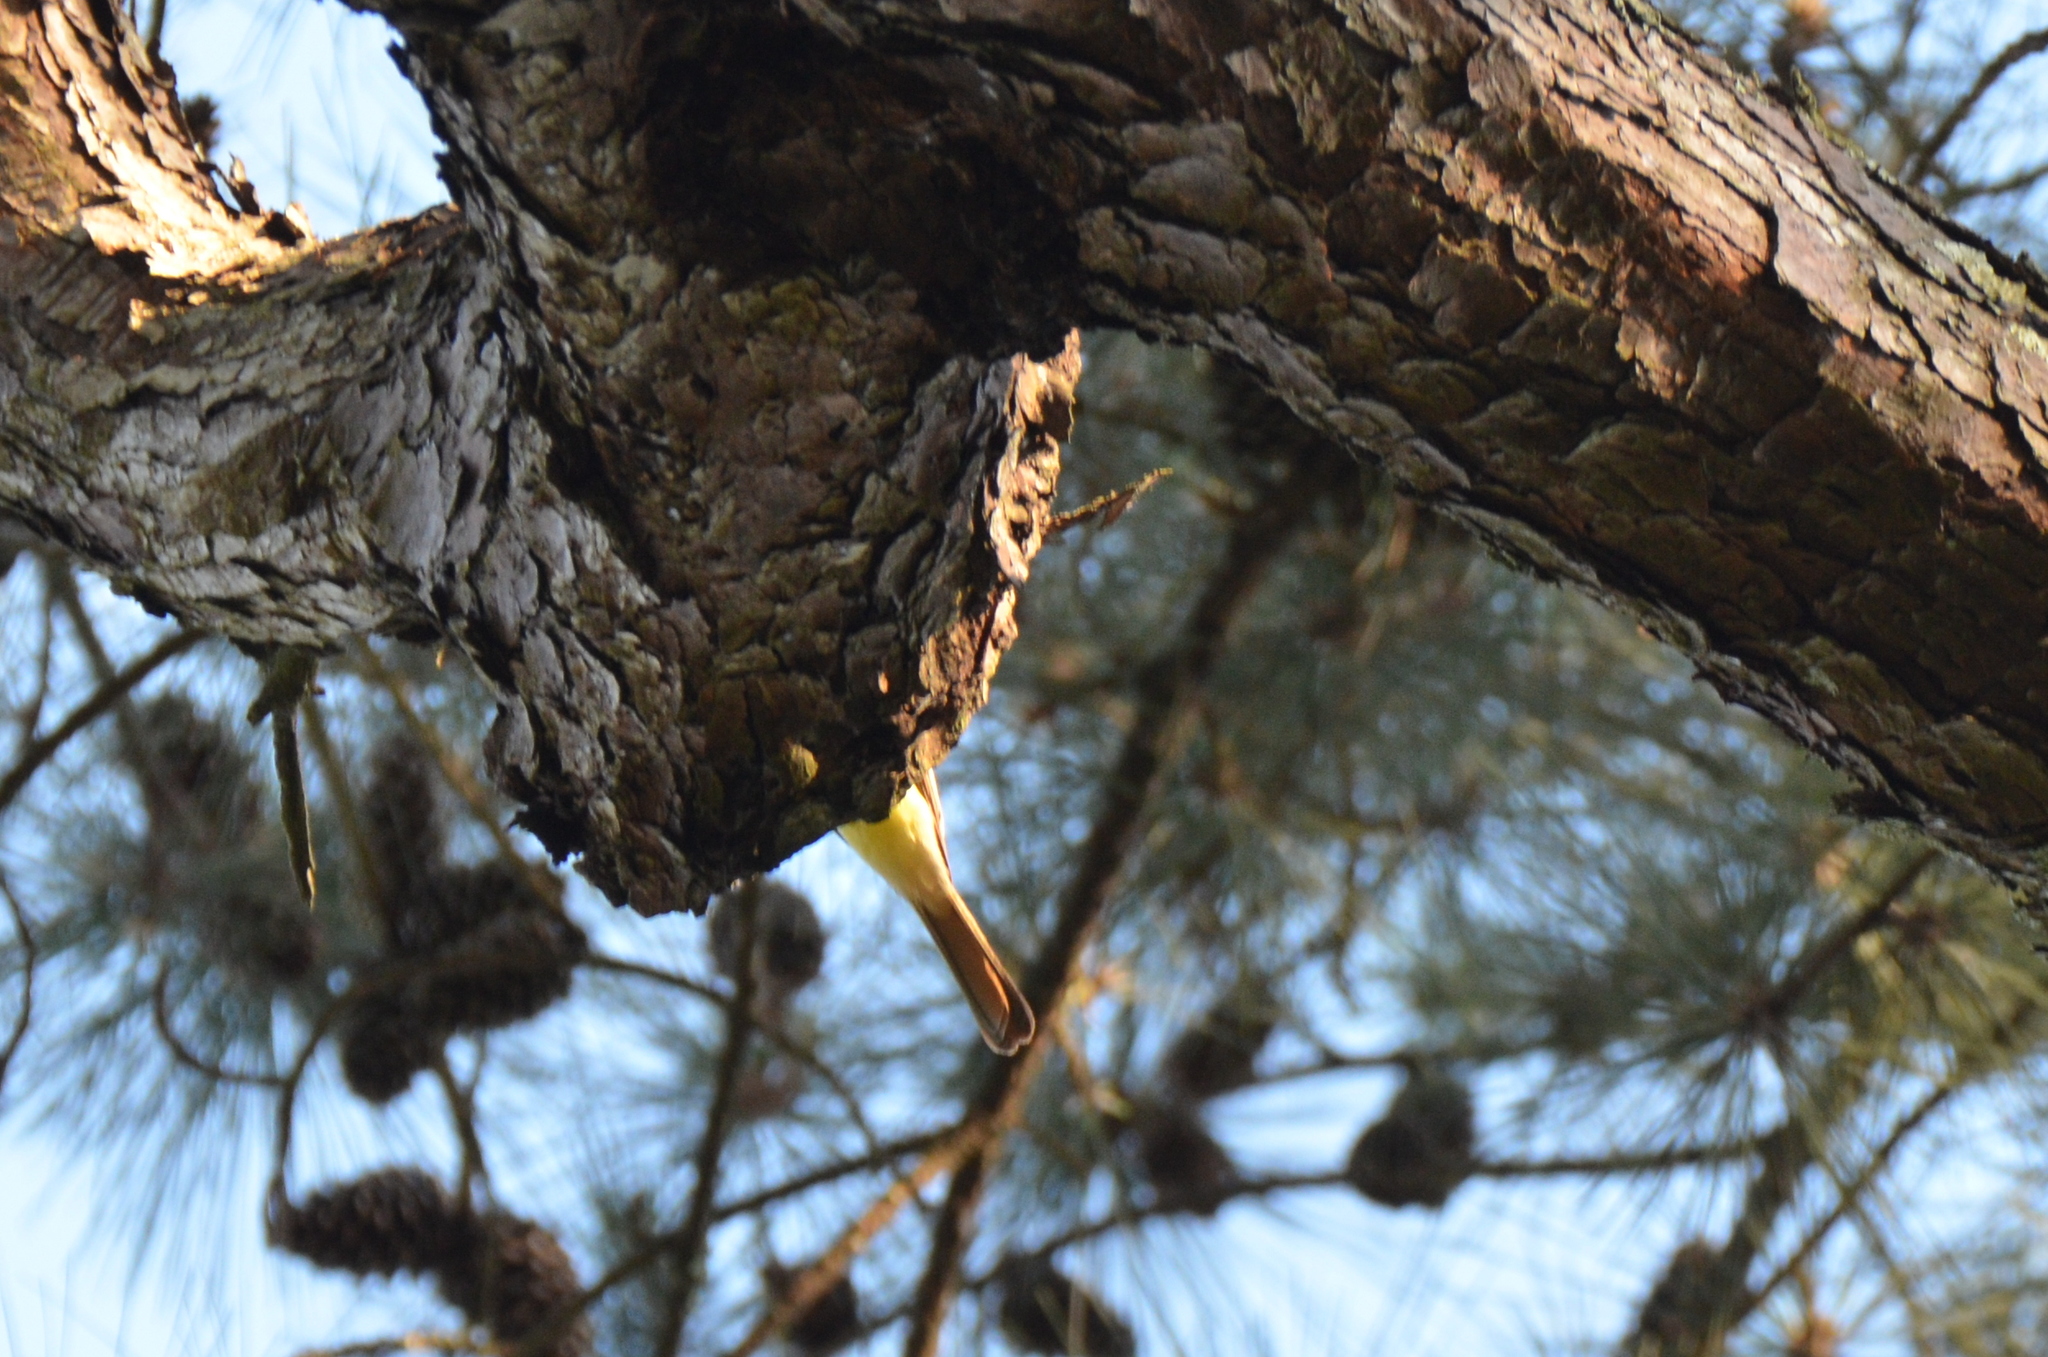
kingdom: Animalia
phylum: Chordata
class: Aves
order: Passeriformes
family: Tyrannidae
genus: Myiarchus
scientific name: Myiarchus crinitus
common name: Great crested flycatcher
